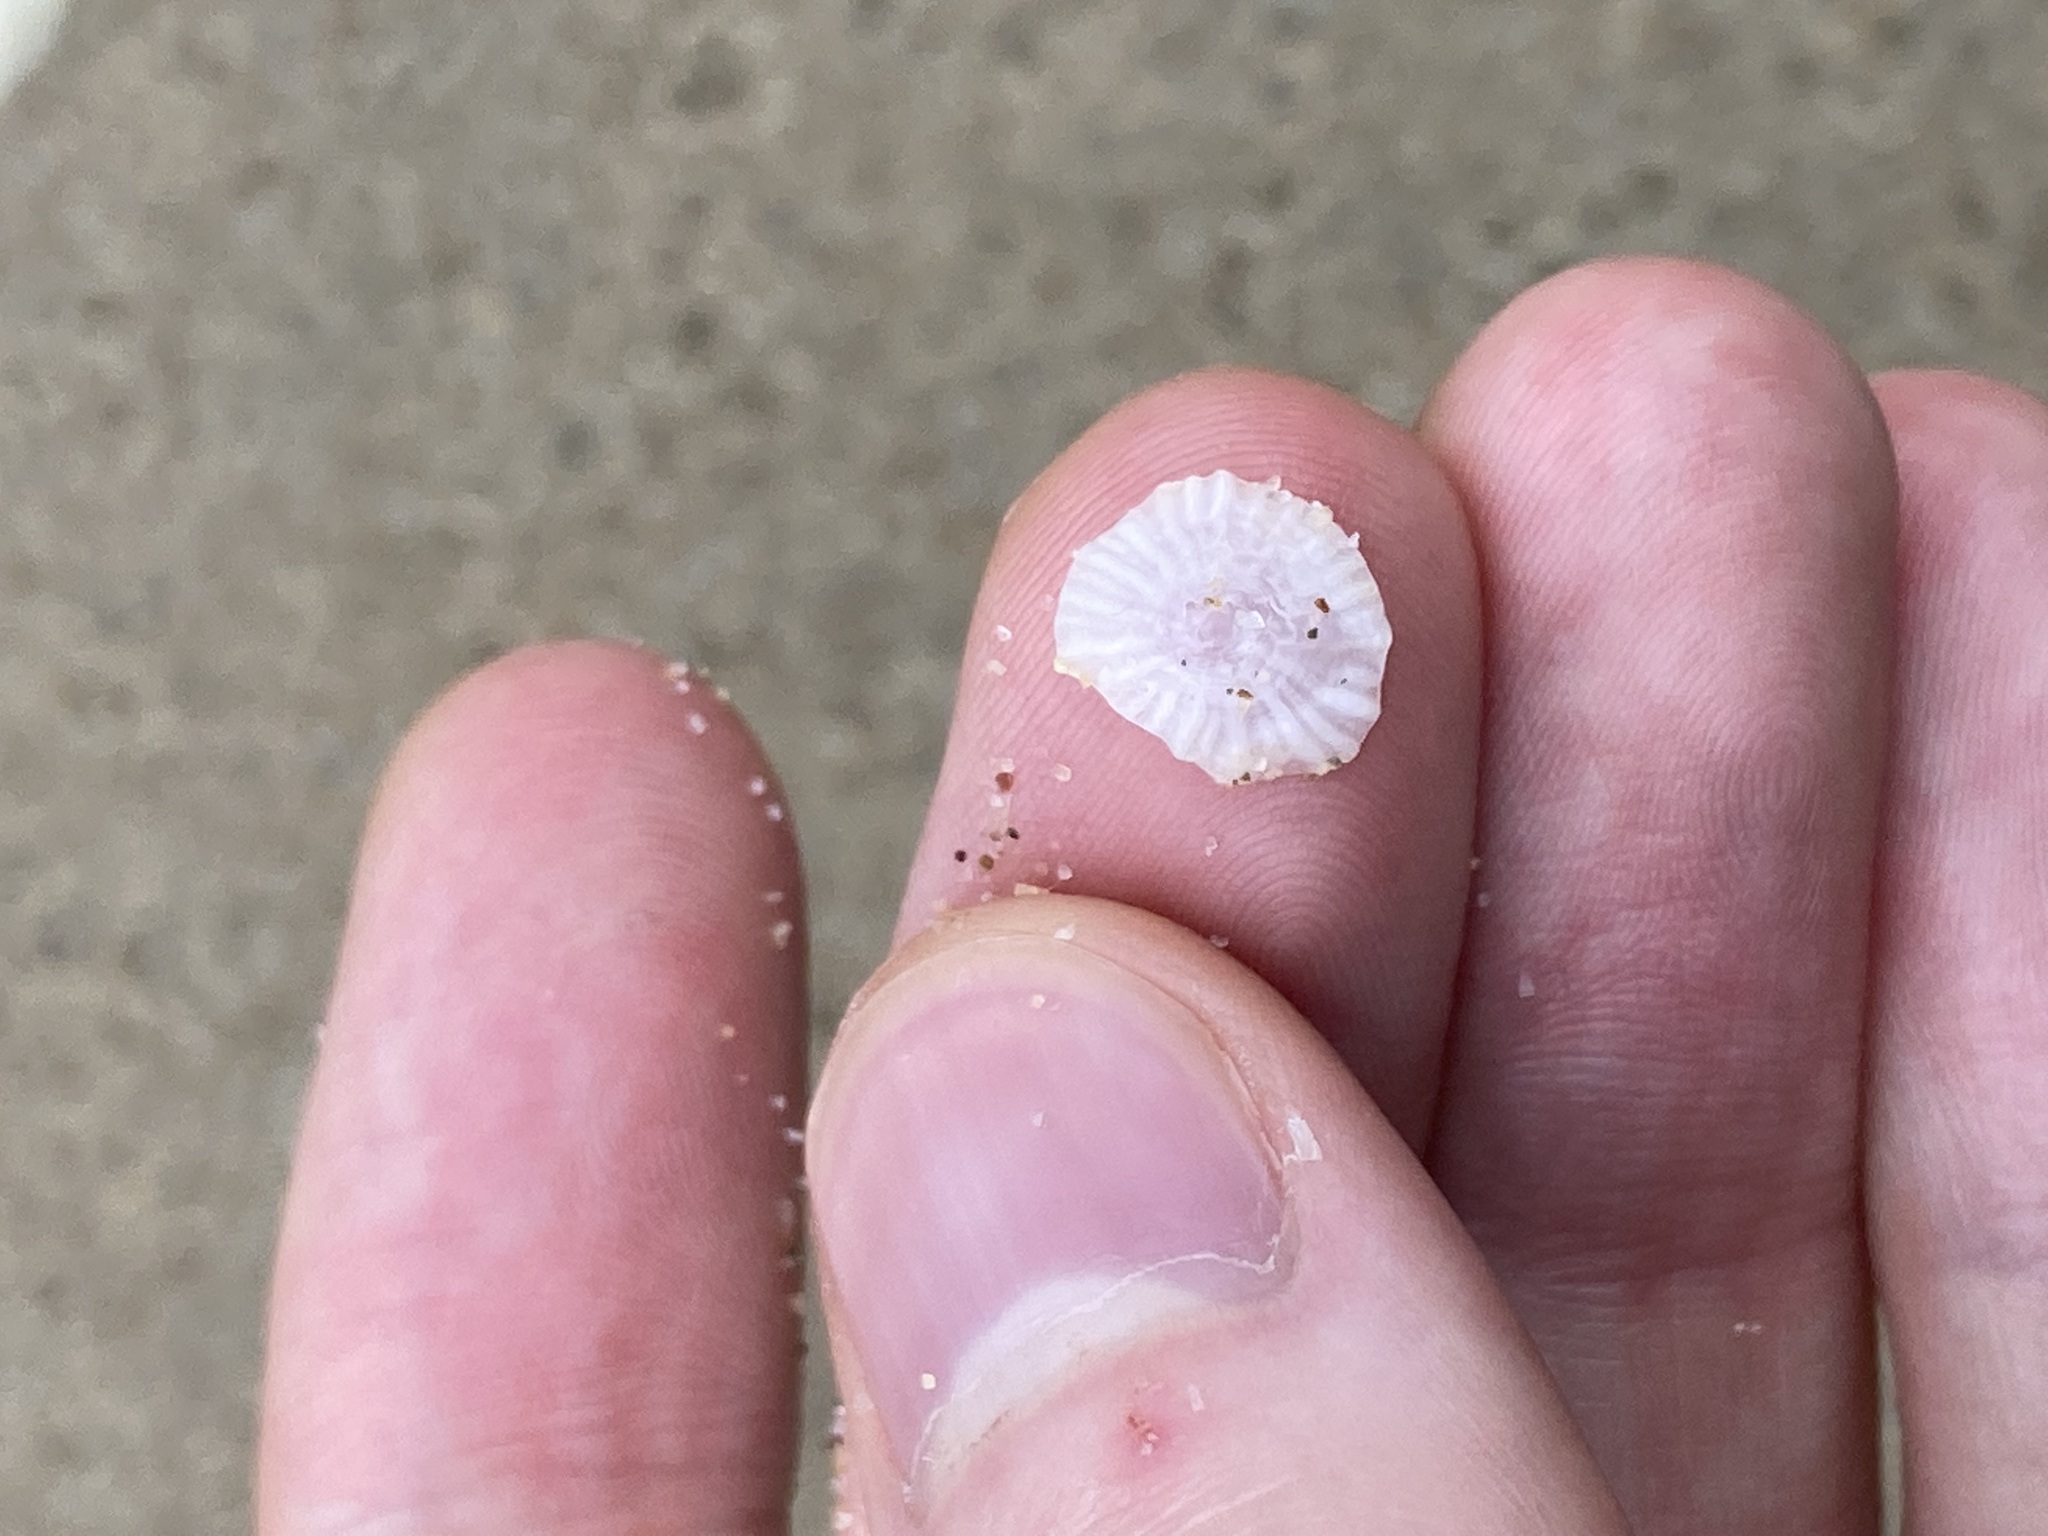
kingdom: Animalia
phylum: Mollusca
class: Gastropoda
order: Ellobiida
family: Trimusculidae
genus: Trimusculus
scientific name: Trimusculus conicus
